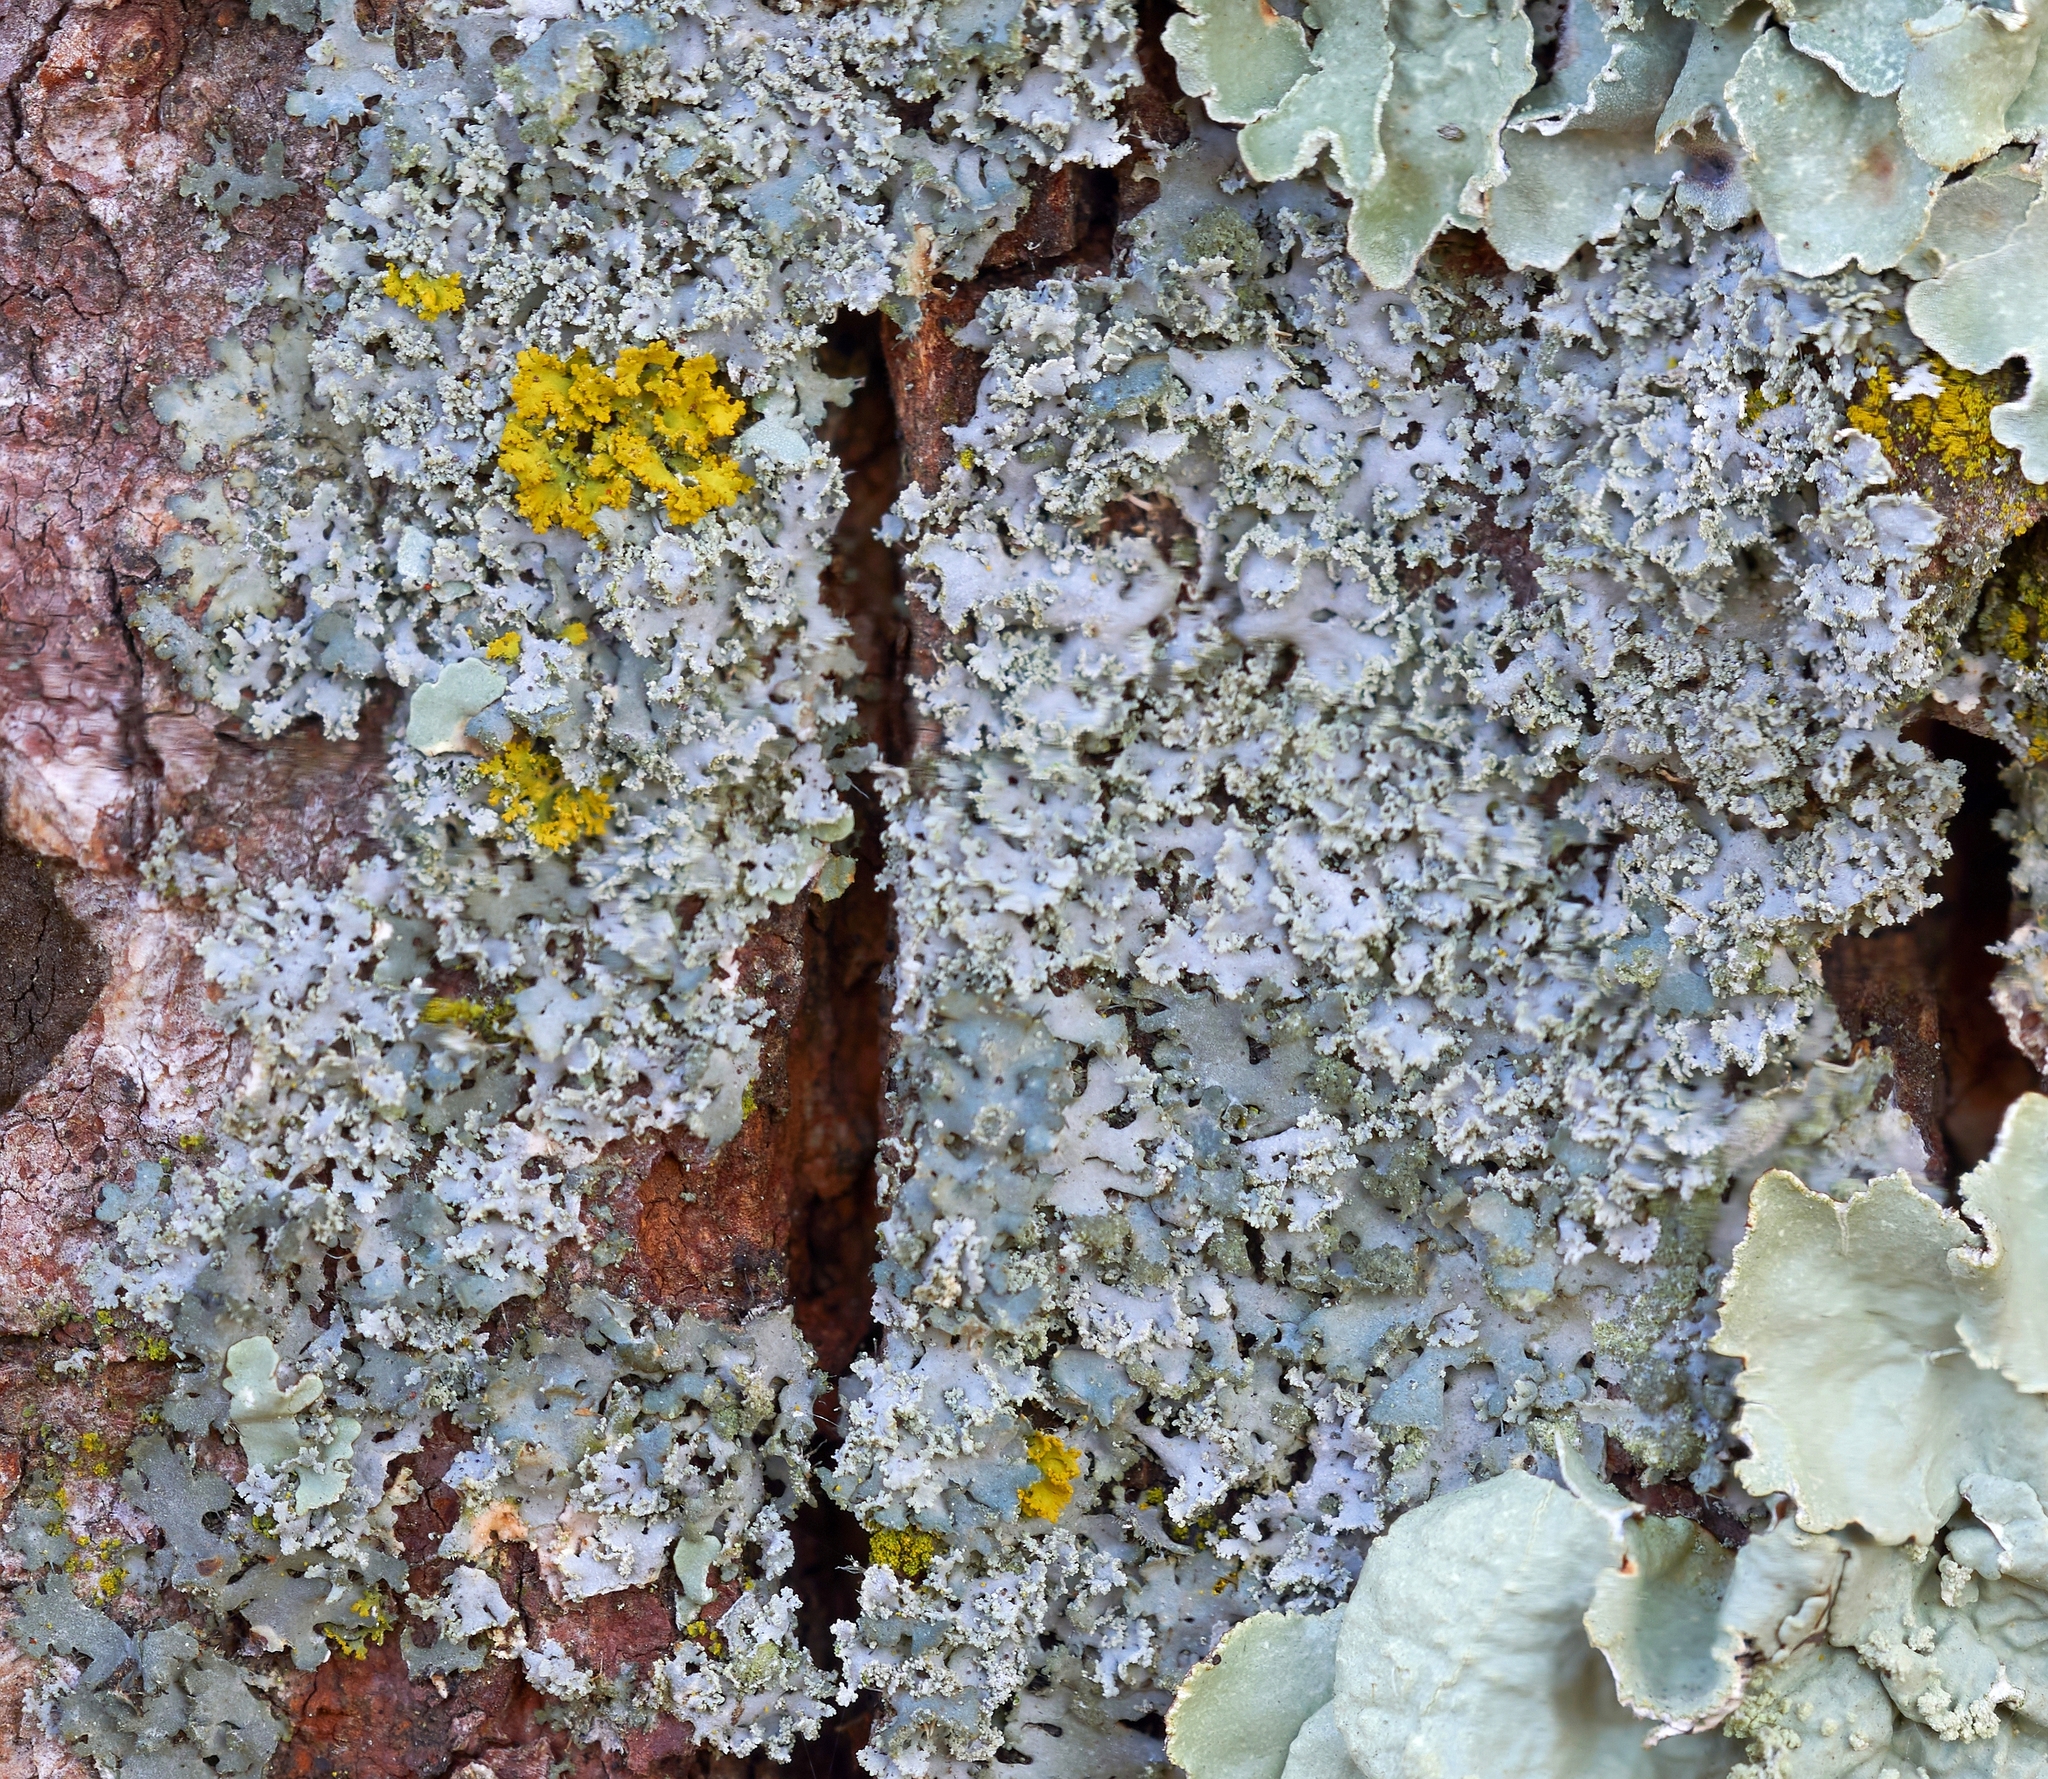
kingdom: Fungi
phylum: Ascomycota
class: Lecanoromycetes
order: Caliciales
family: Physciaceae
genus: Physcia
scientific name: Physcia millegrana
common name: Rosette lichen
